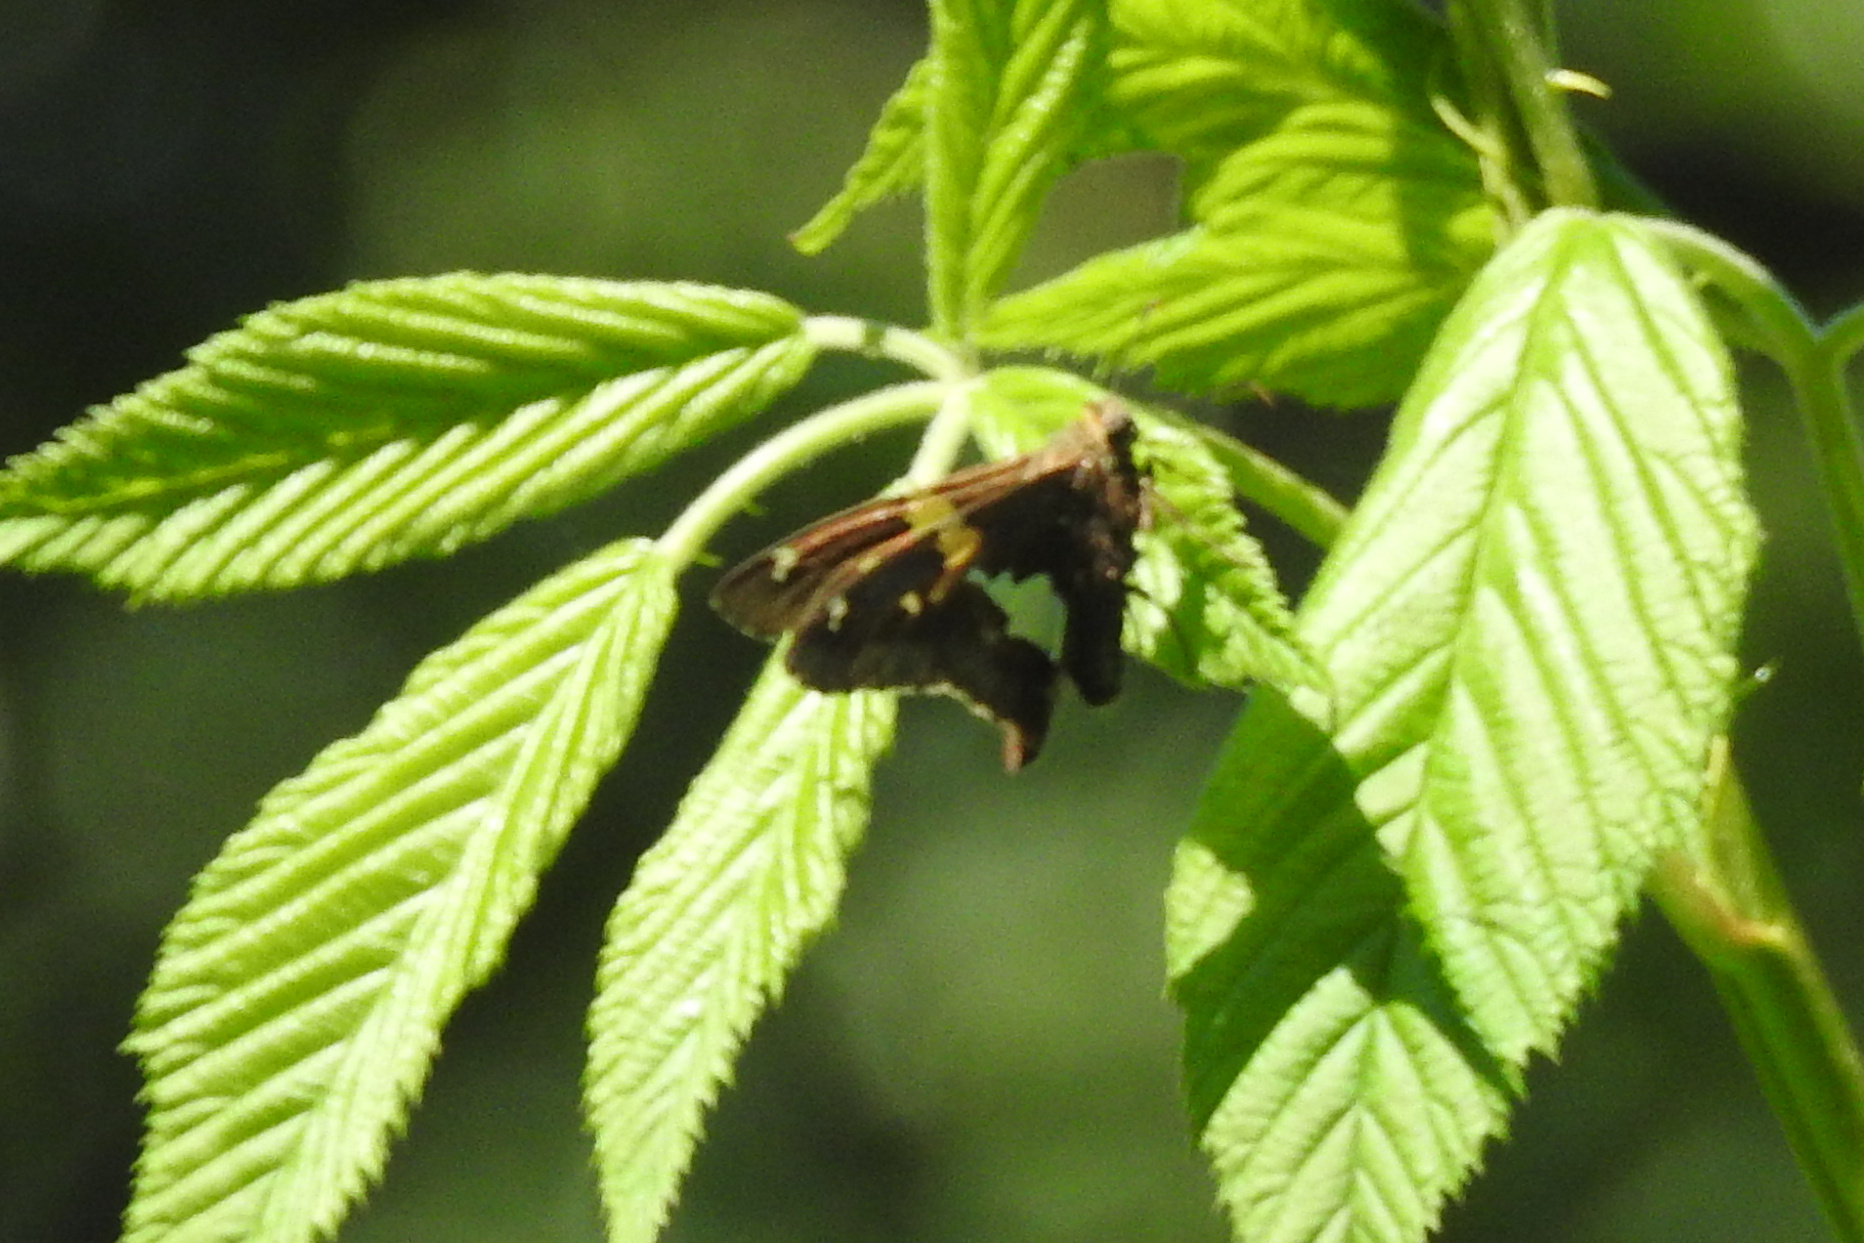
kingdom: Animalia
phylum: Arthropoda
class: Insecta
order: Lepidoptera
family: Hesperiidae
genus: Epargyreus
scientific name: Epargyreus clarus
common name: Silver-spotted skipper
